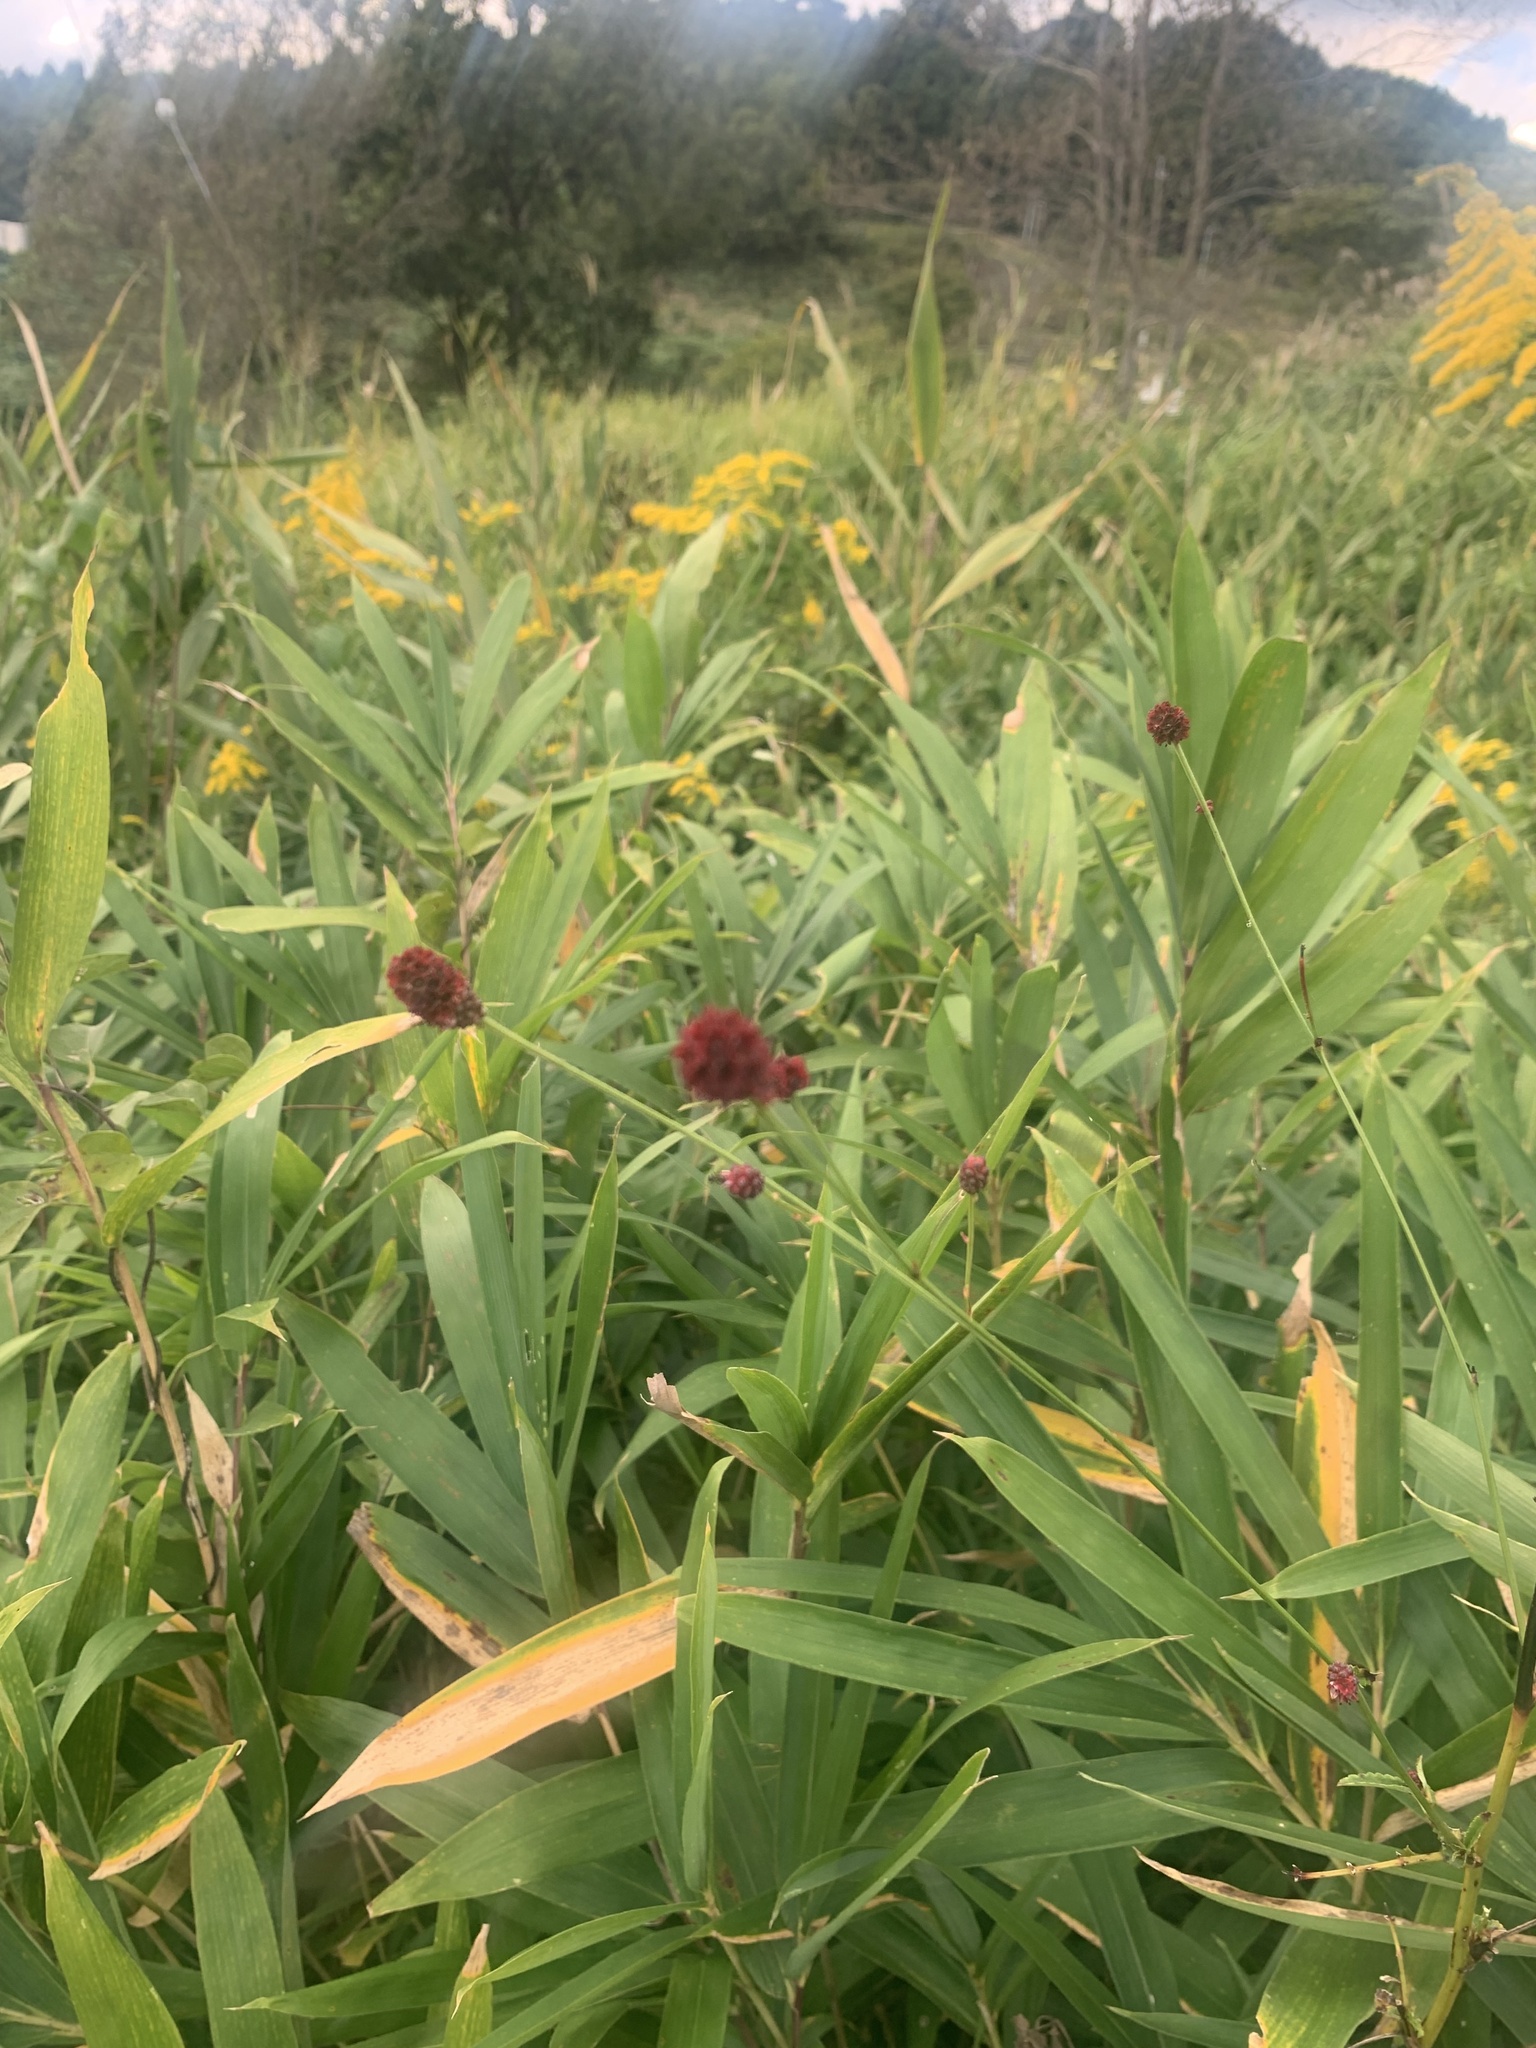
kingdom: Plantae
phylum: Tracheophyta
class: Magnoliopsida
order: Rosales
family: Rosaceae
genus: Sanguisorba
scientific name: Sanguisorba officinalis
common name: Great burnet
